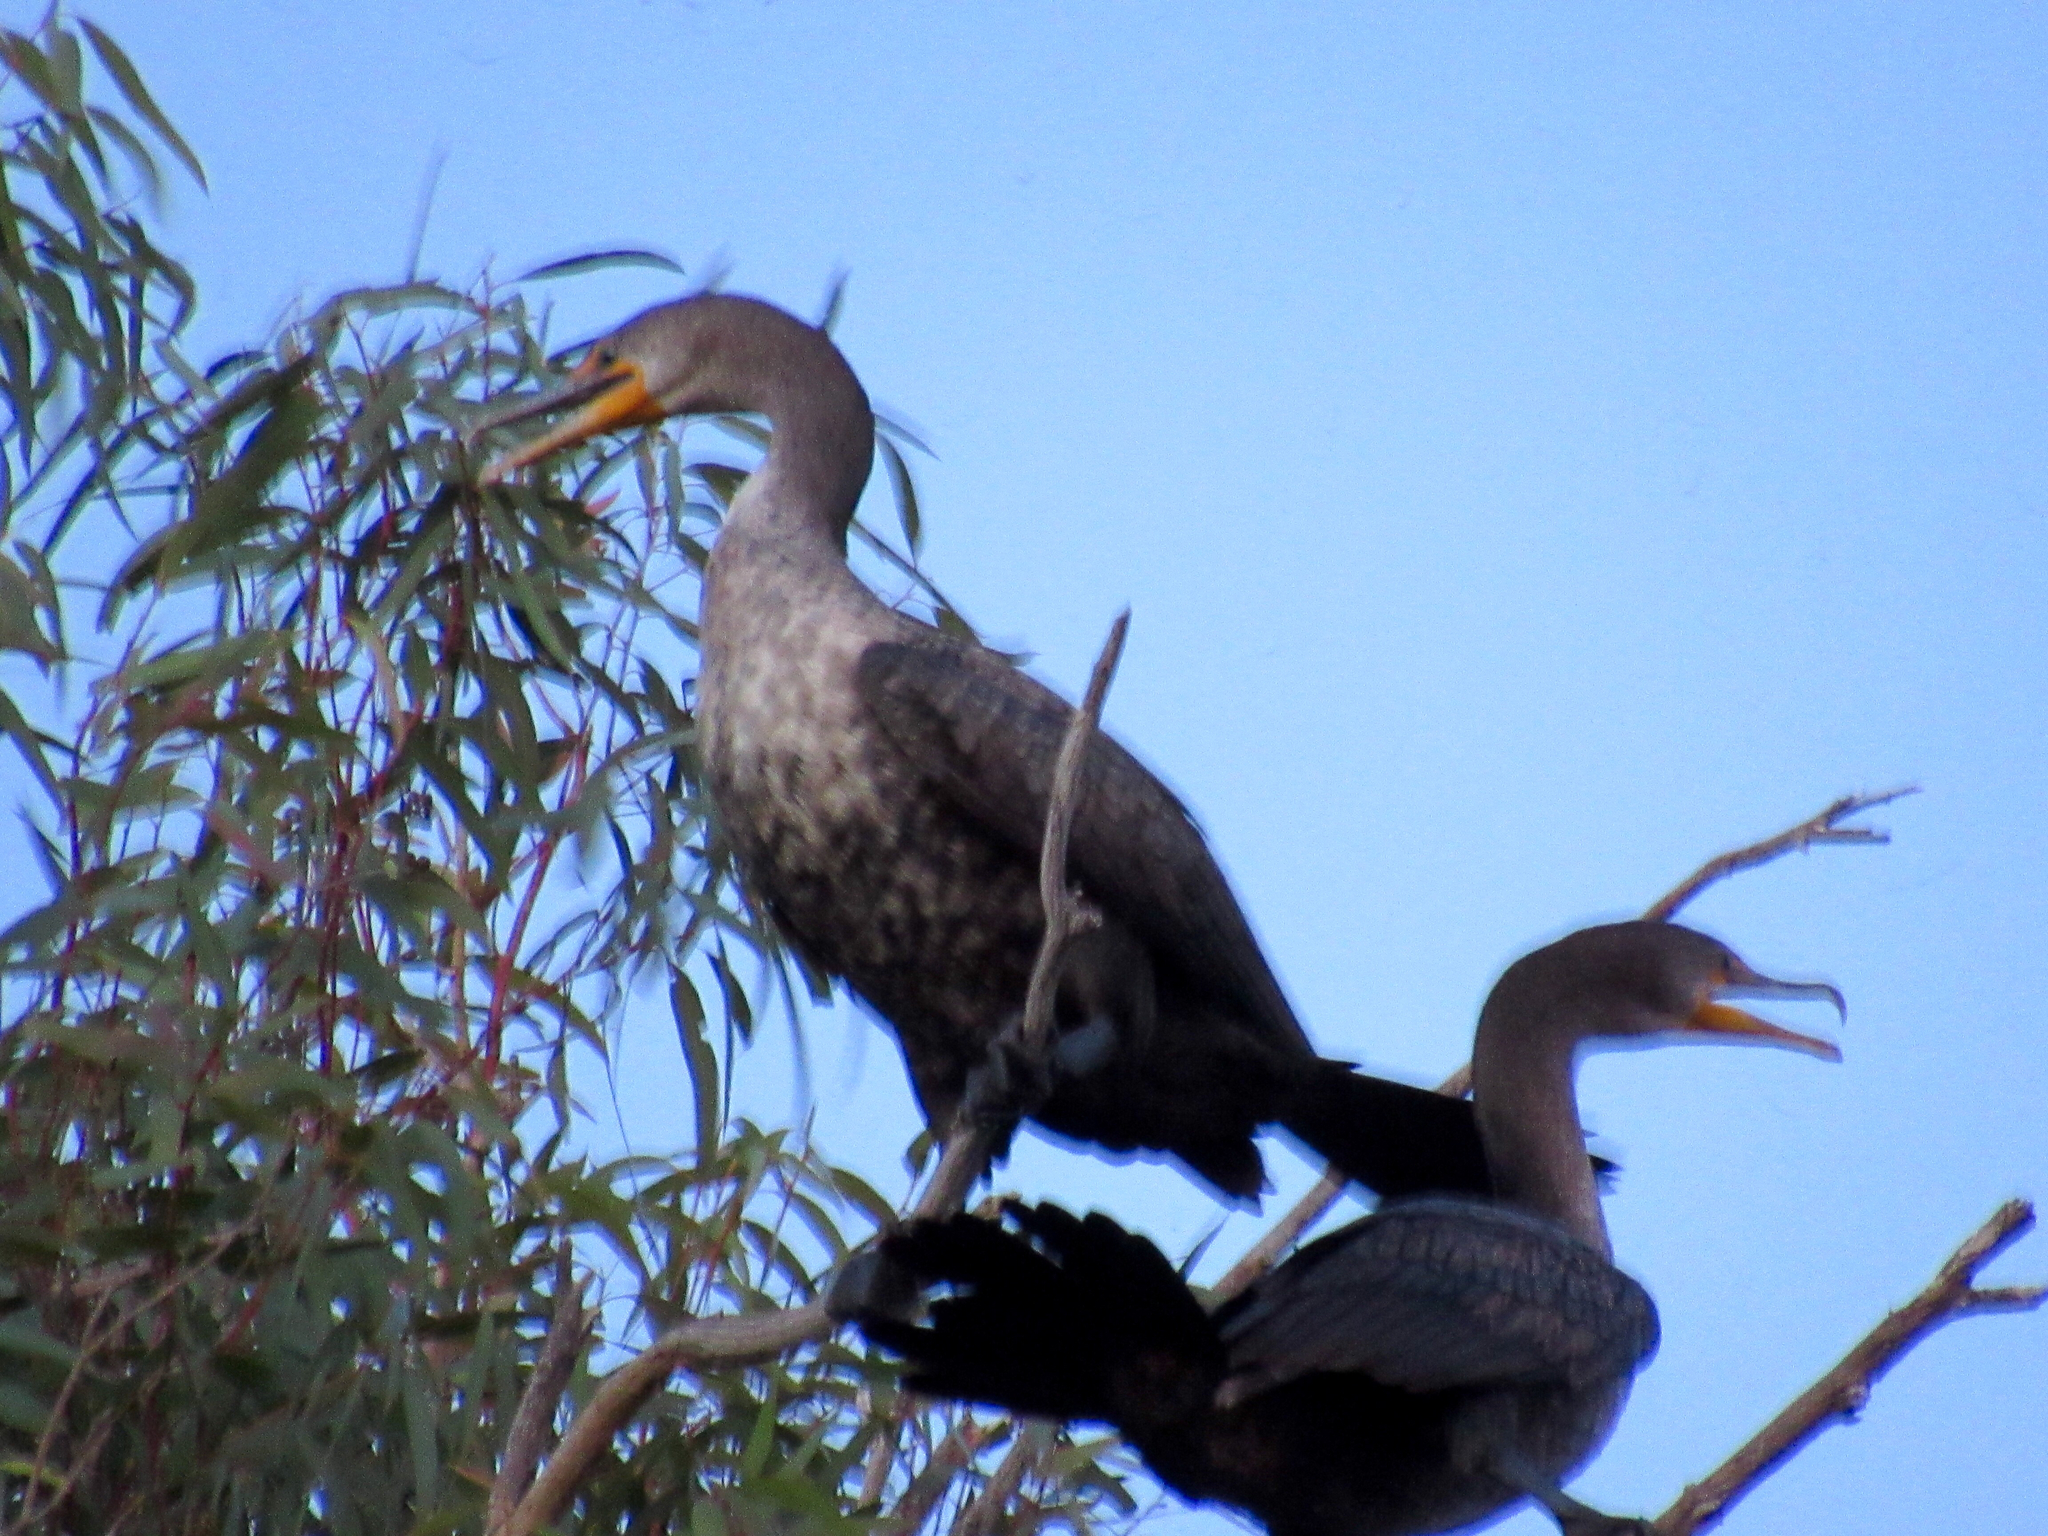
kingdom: Animalia
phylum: Chordata
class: Aves
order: Suliformes
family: Phalacrocoracidae
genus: Phalacrocorax
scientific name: Phalacrocorax auritus
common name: Double-crested cormorant
